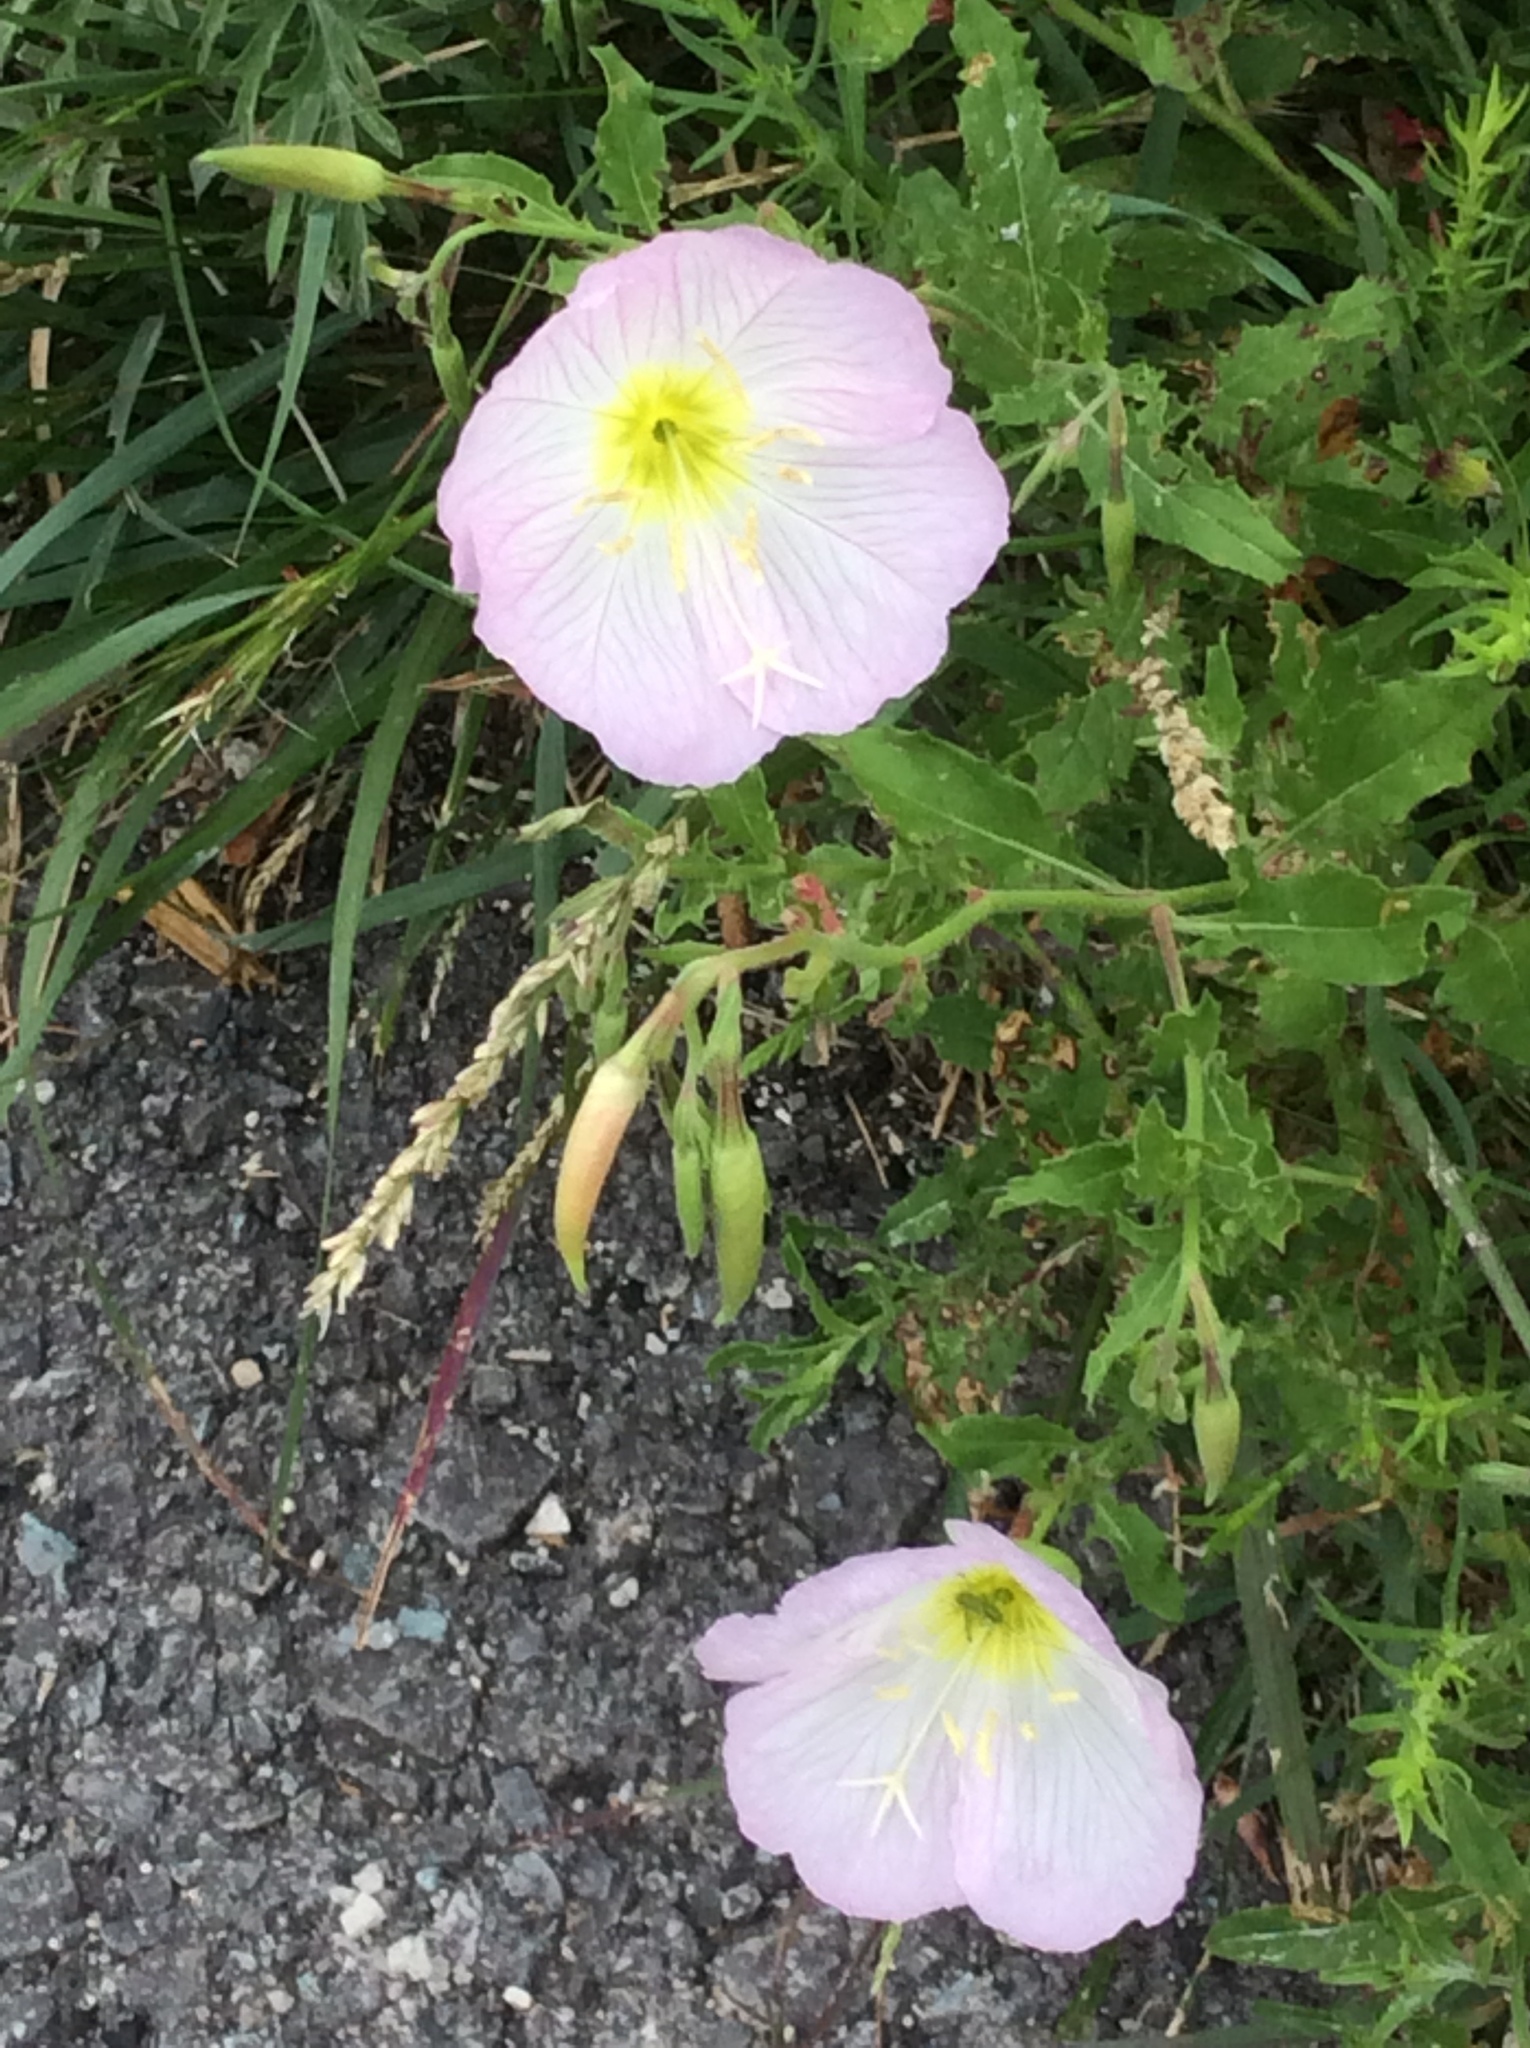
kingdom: Plantae
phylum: Tracheophyta
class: Magnoliopsida
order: Myrtales
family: Onagraceae
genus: Oenothera
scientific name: Oenothera speciosa
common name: White evening-primrose
